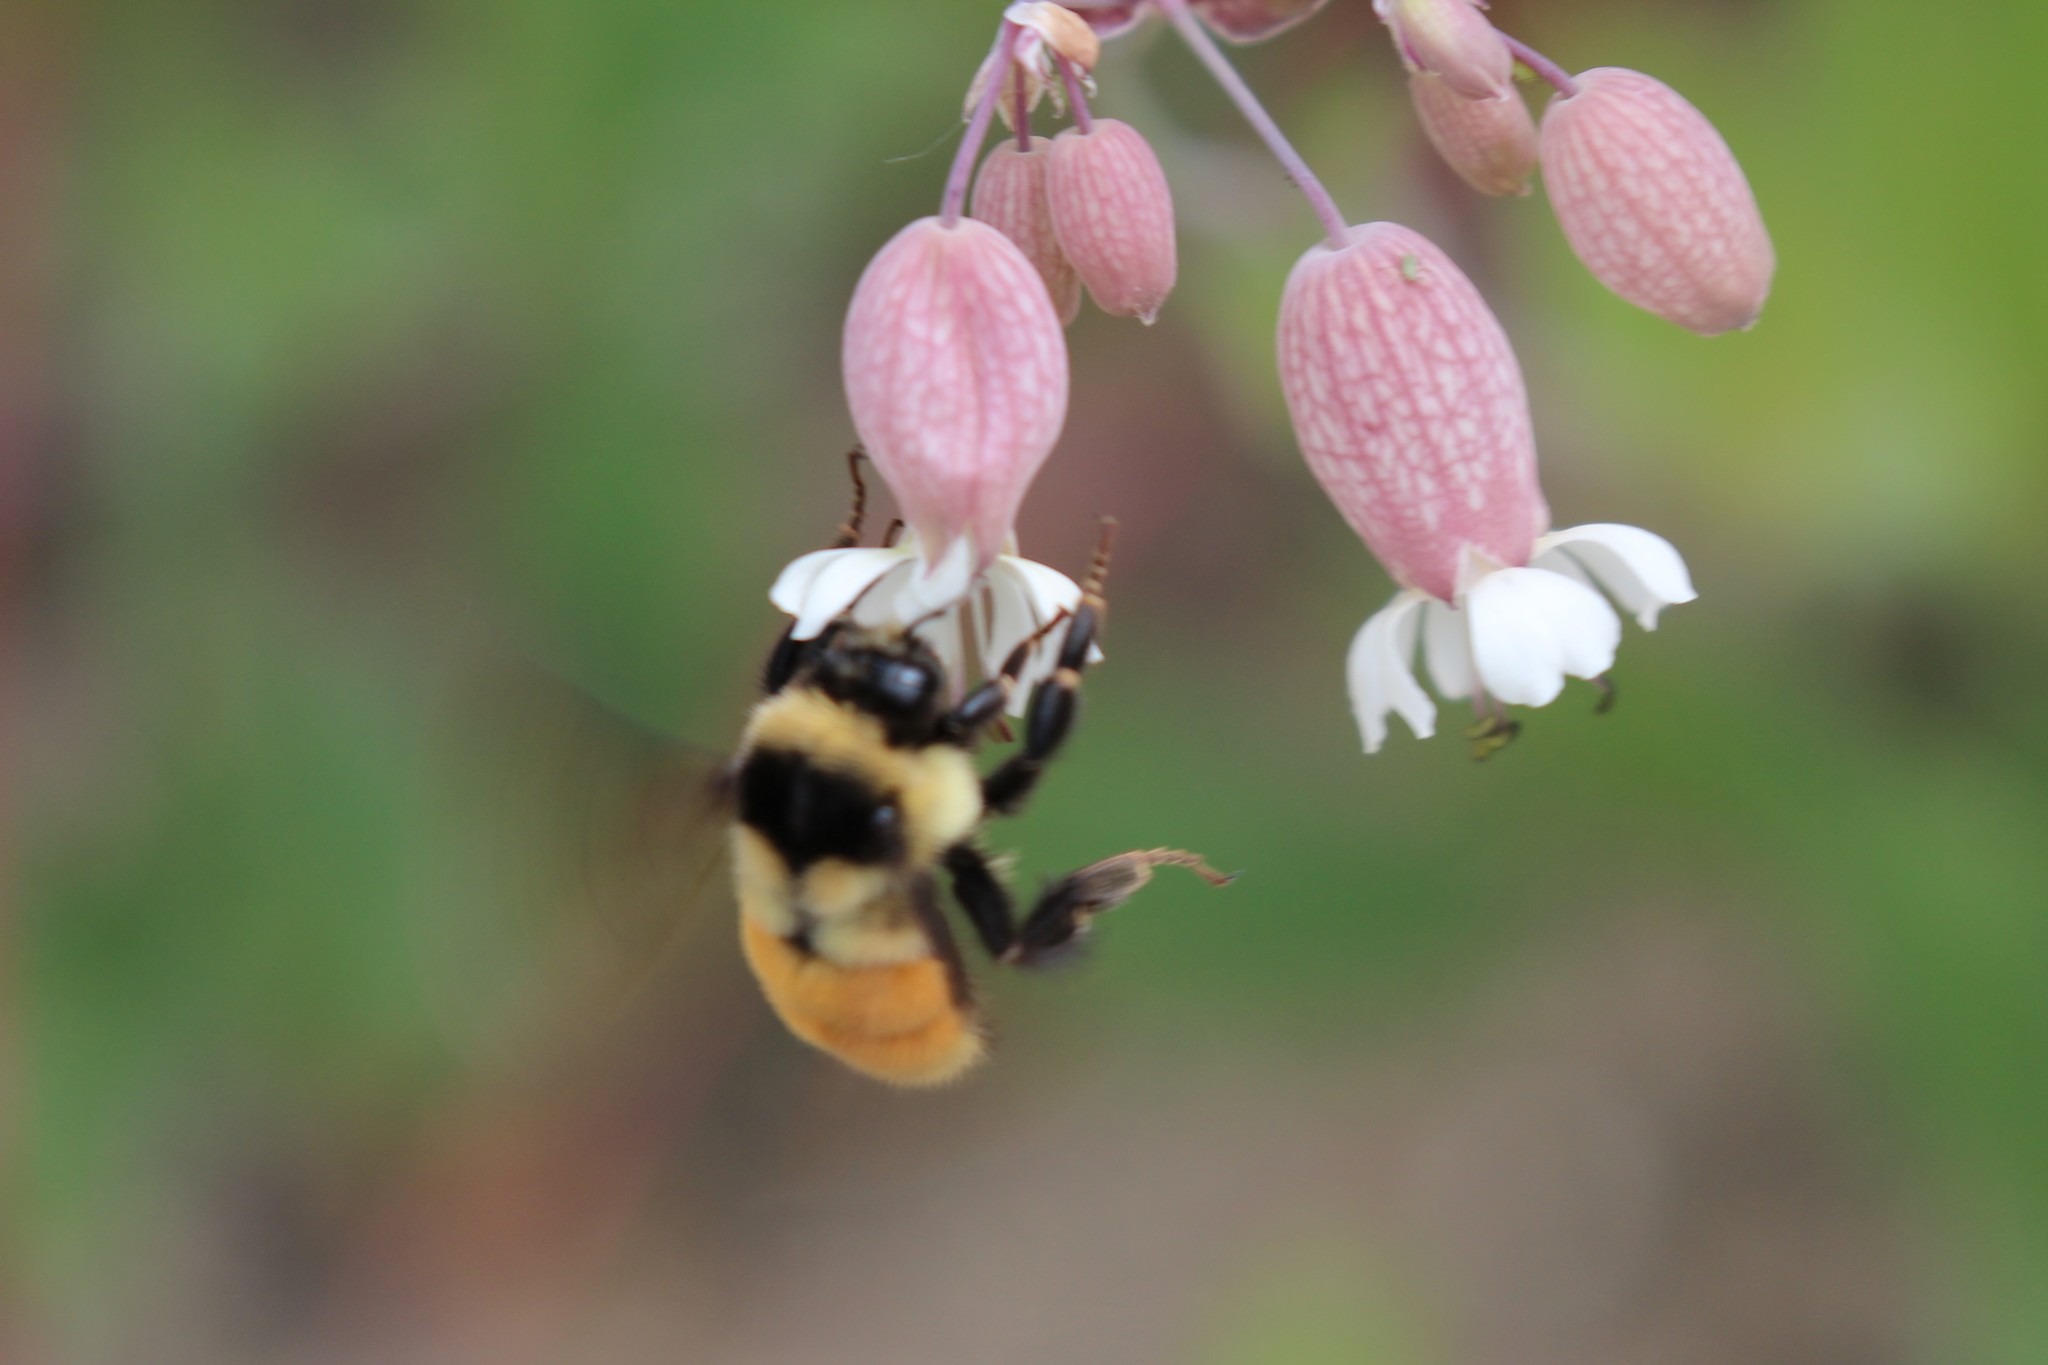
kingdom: Animalia
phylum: Arthropoda
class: Insecta
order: Hymenoptera
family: Apidae
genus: Bombus
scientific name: Bombus ternarius
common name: Tri-colored bumble bee
